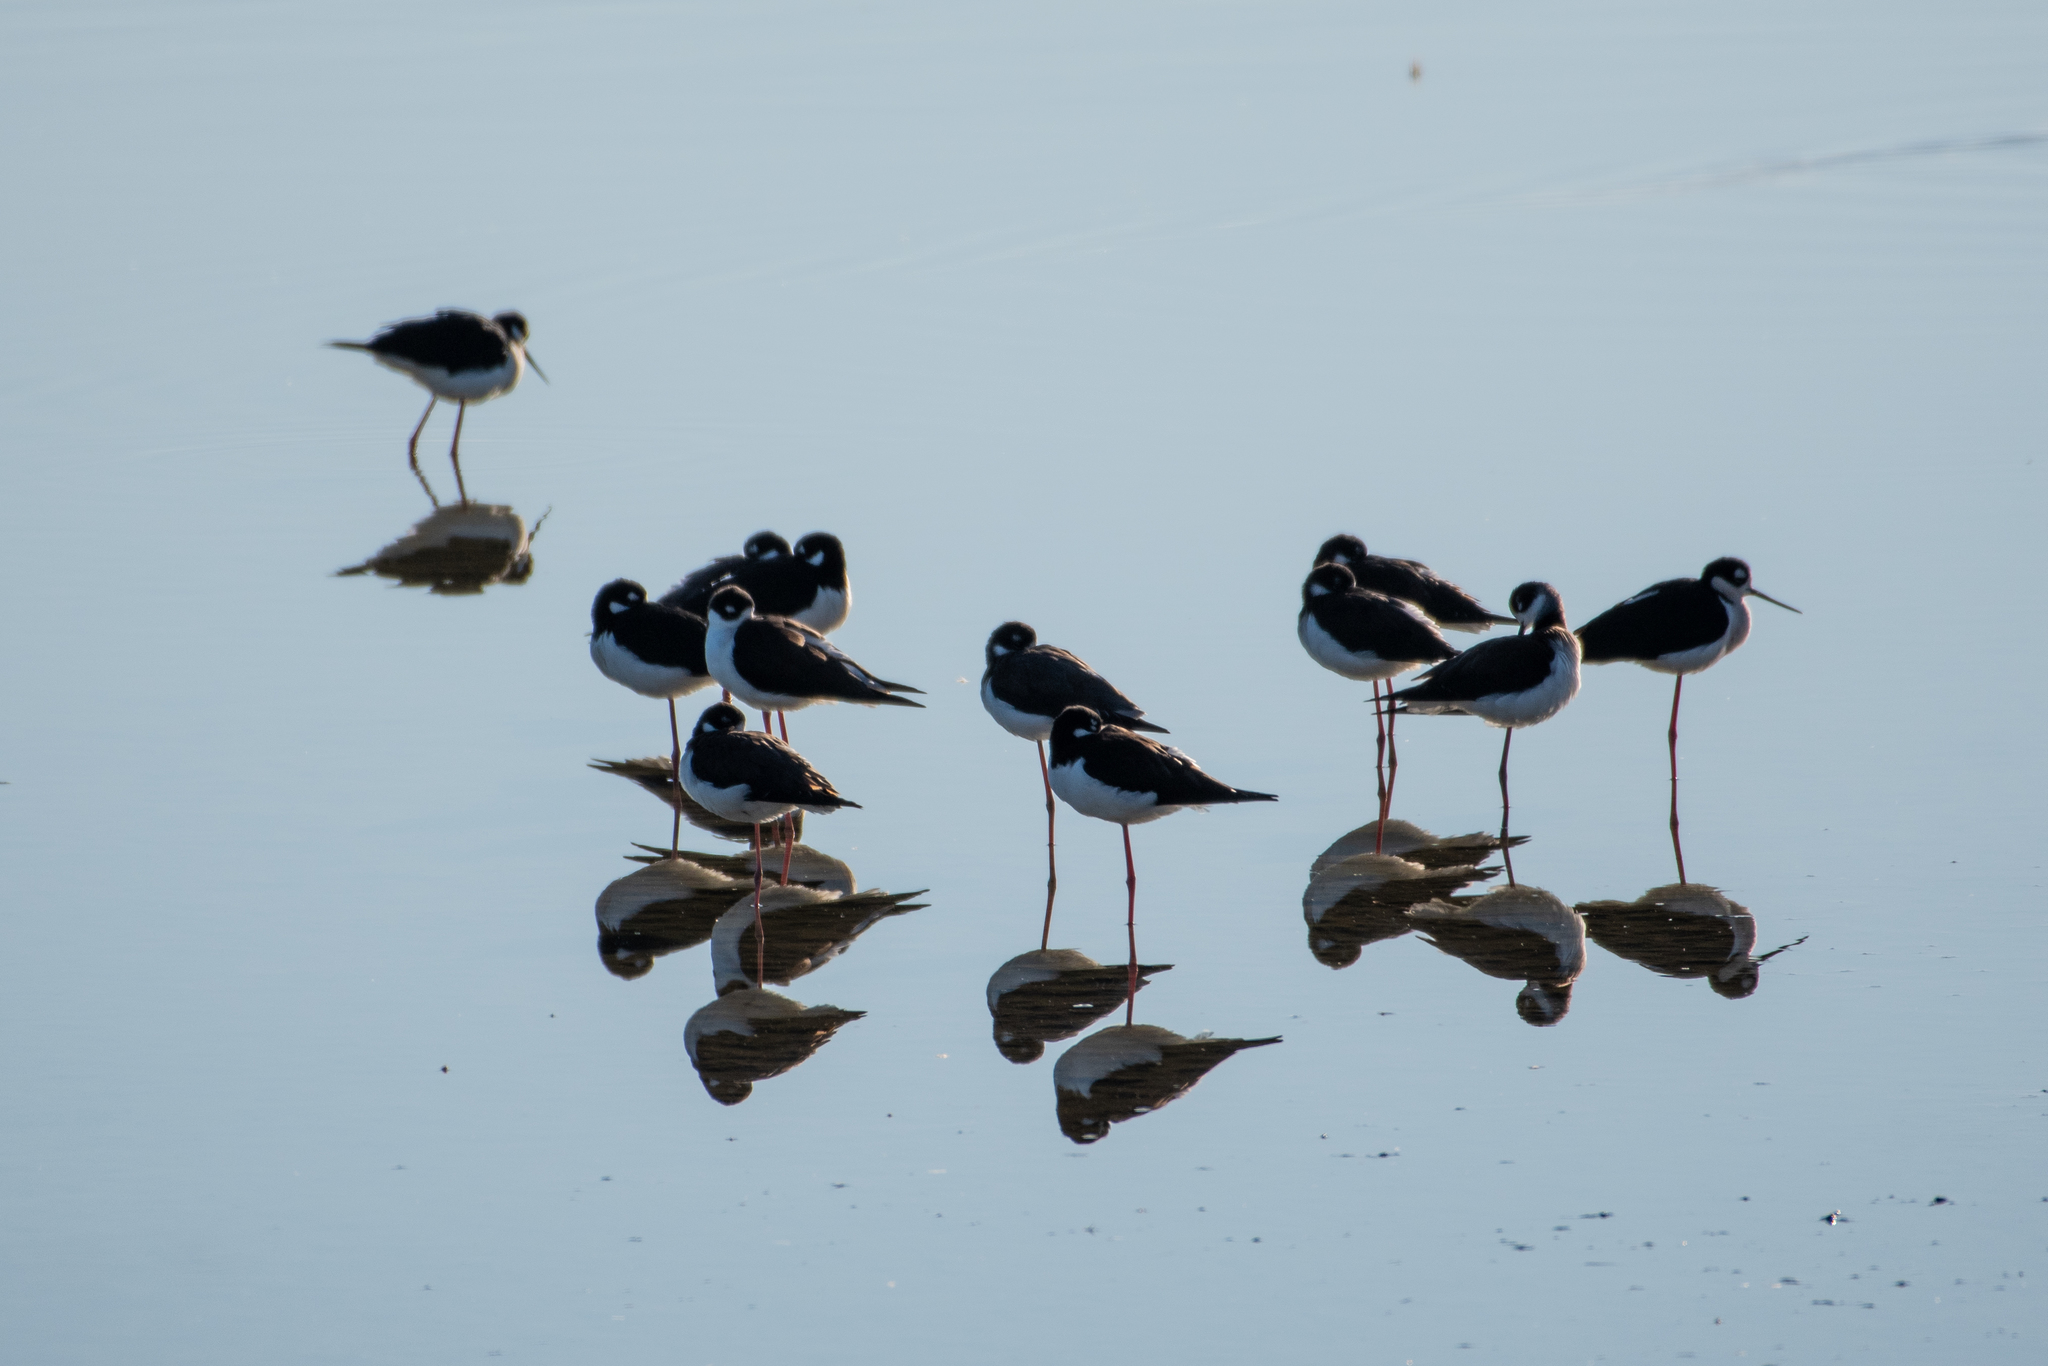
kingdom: Animalia
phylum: Chordata
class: Aves
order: Charadriiformes
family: Recurvirostridae
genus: Himantopus
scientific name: Himantopus mexicanus
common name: Black-necked stilt
